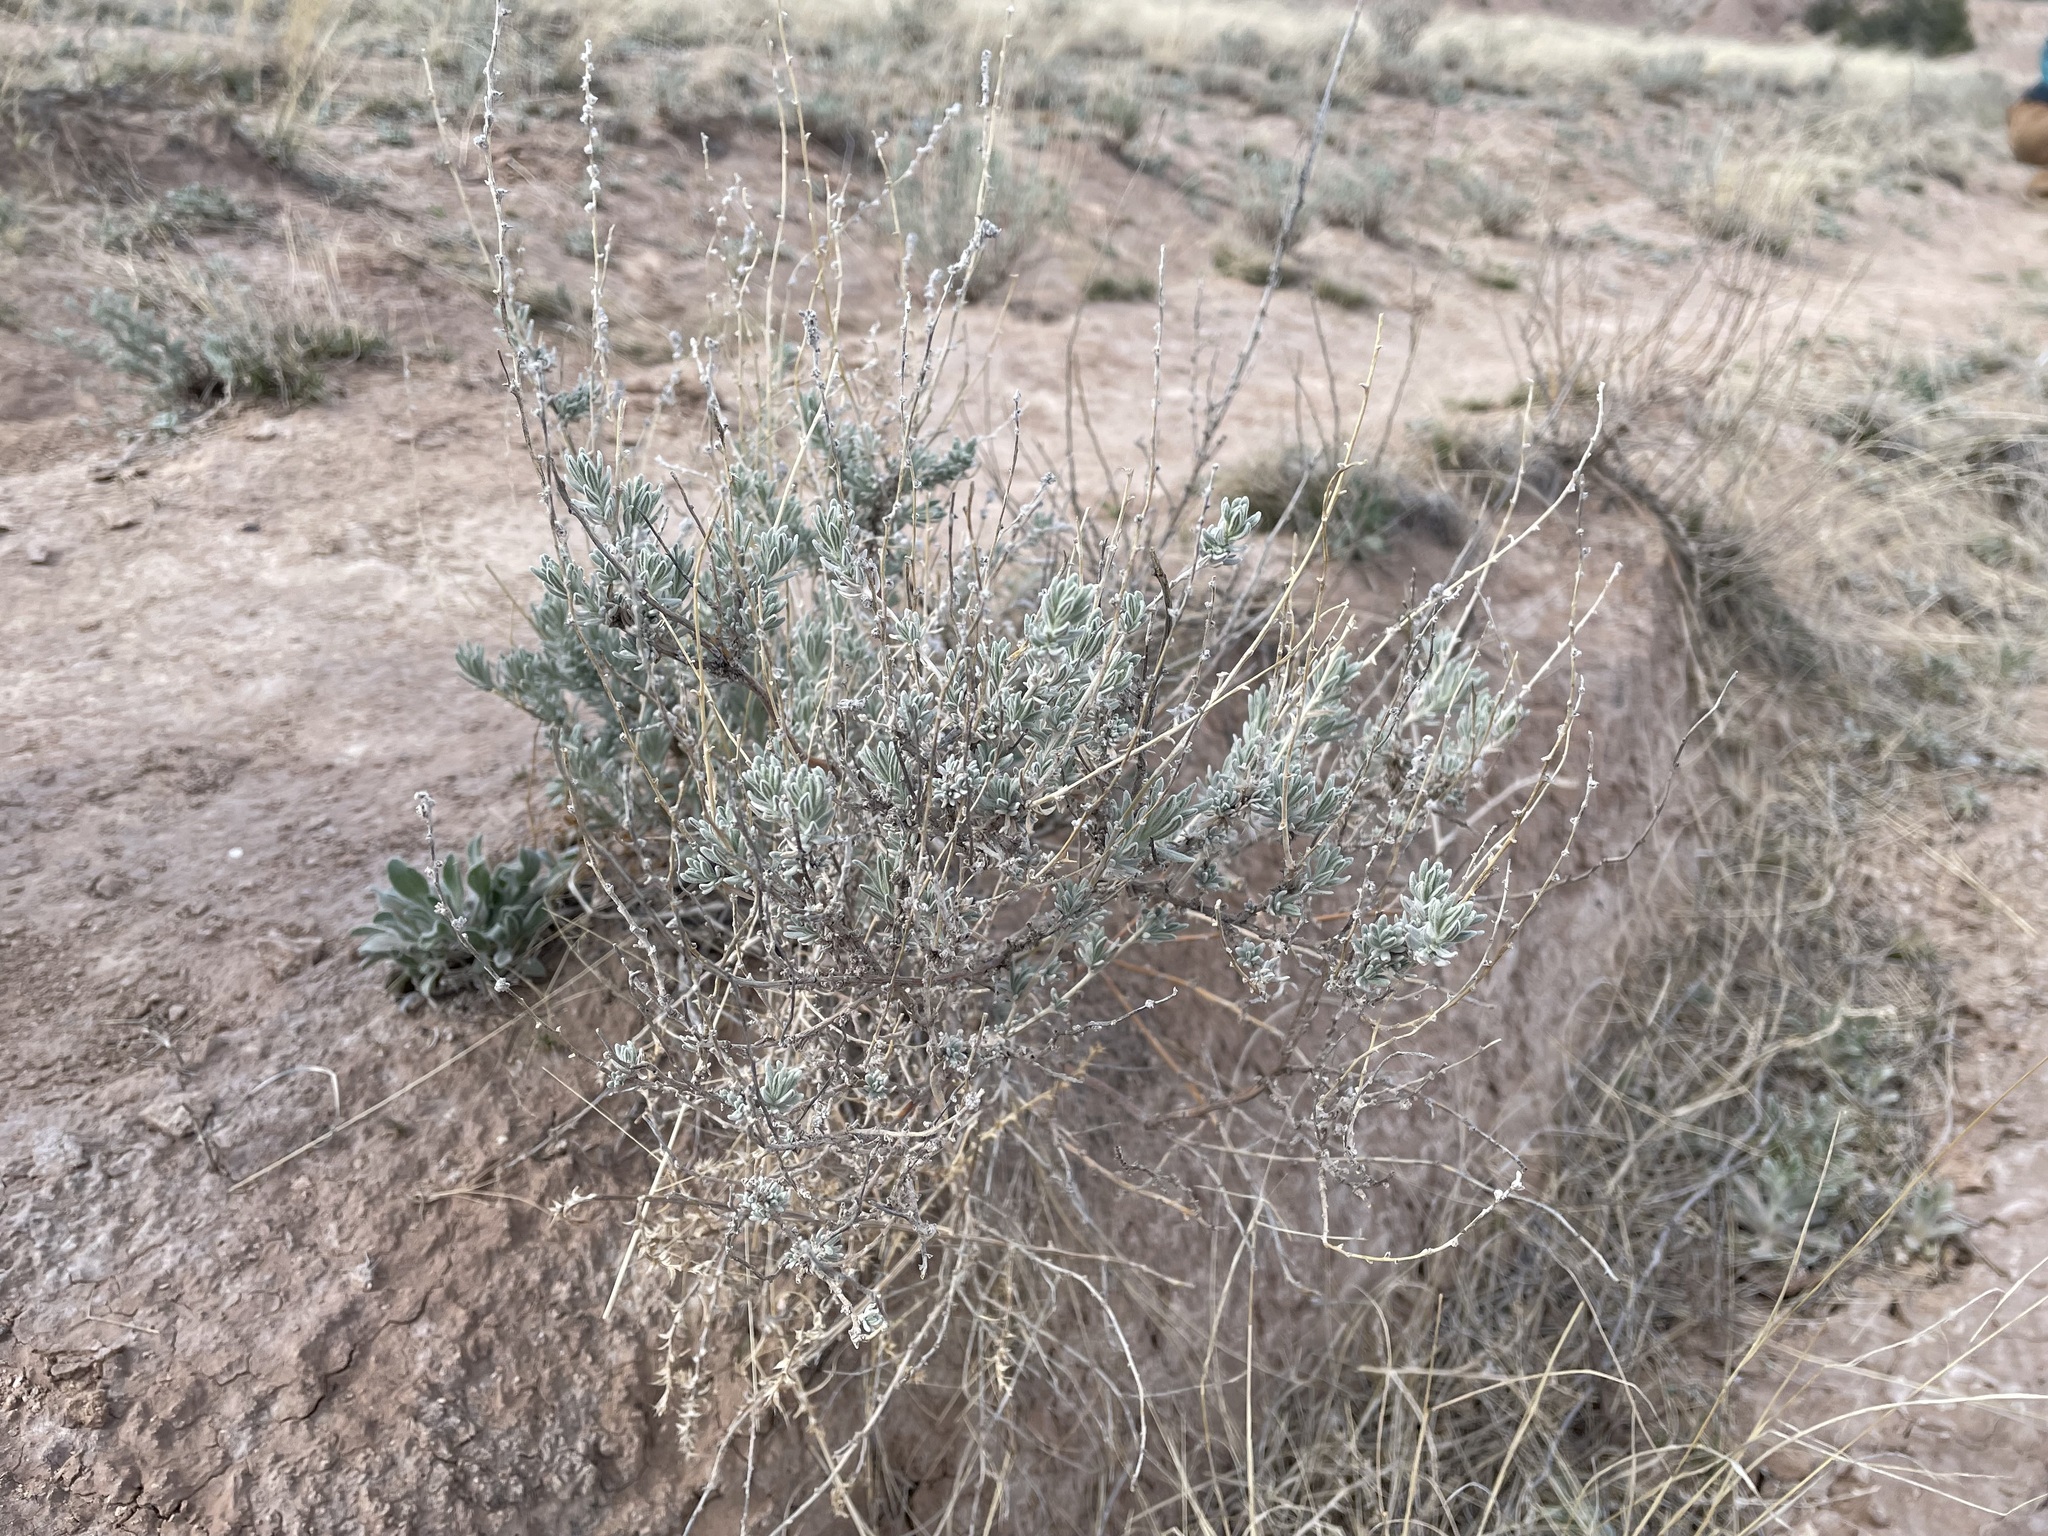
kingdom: Plantae
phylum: Tracheophyta
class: Magnoliopsida
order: Caryophyllales
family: Amaranthaceae
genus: Krascheninnikovia
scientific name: Krascheninnikovia lanata
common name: Winterfat
